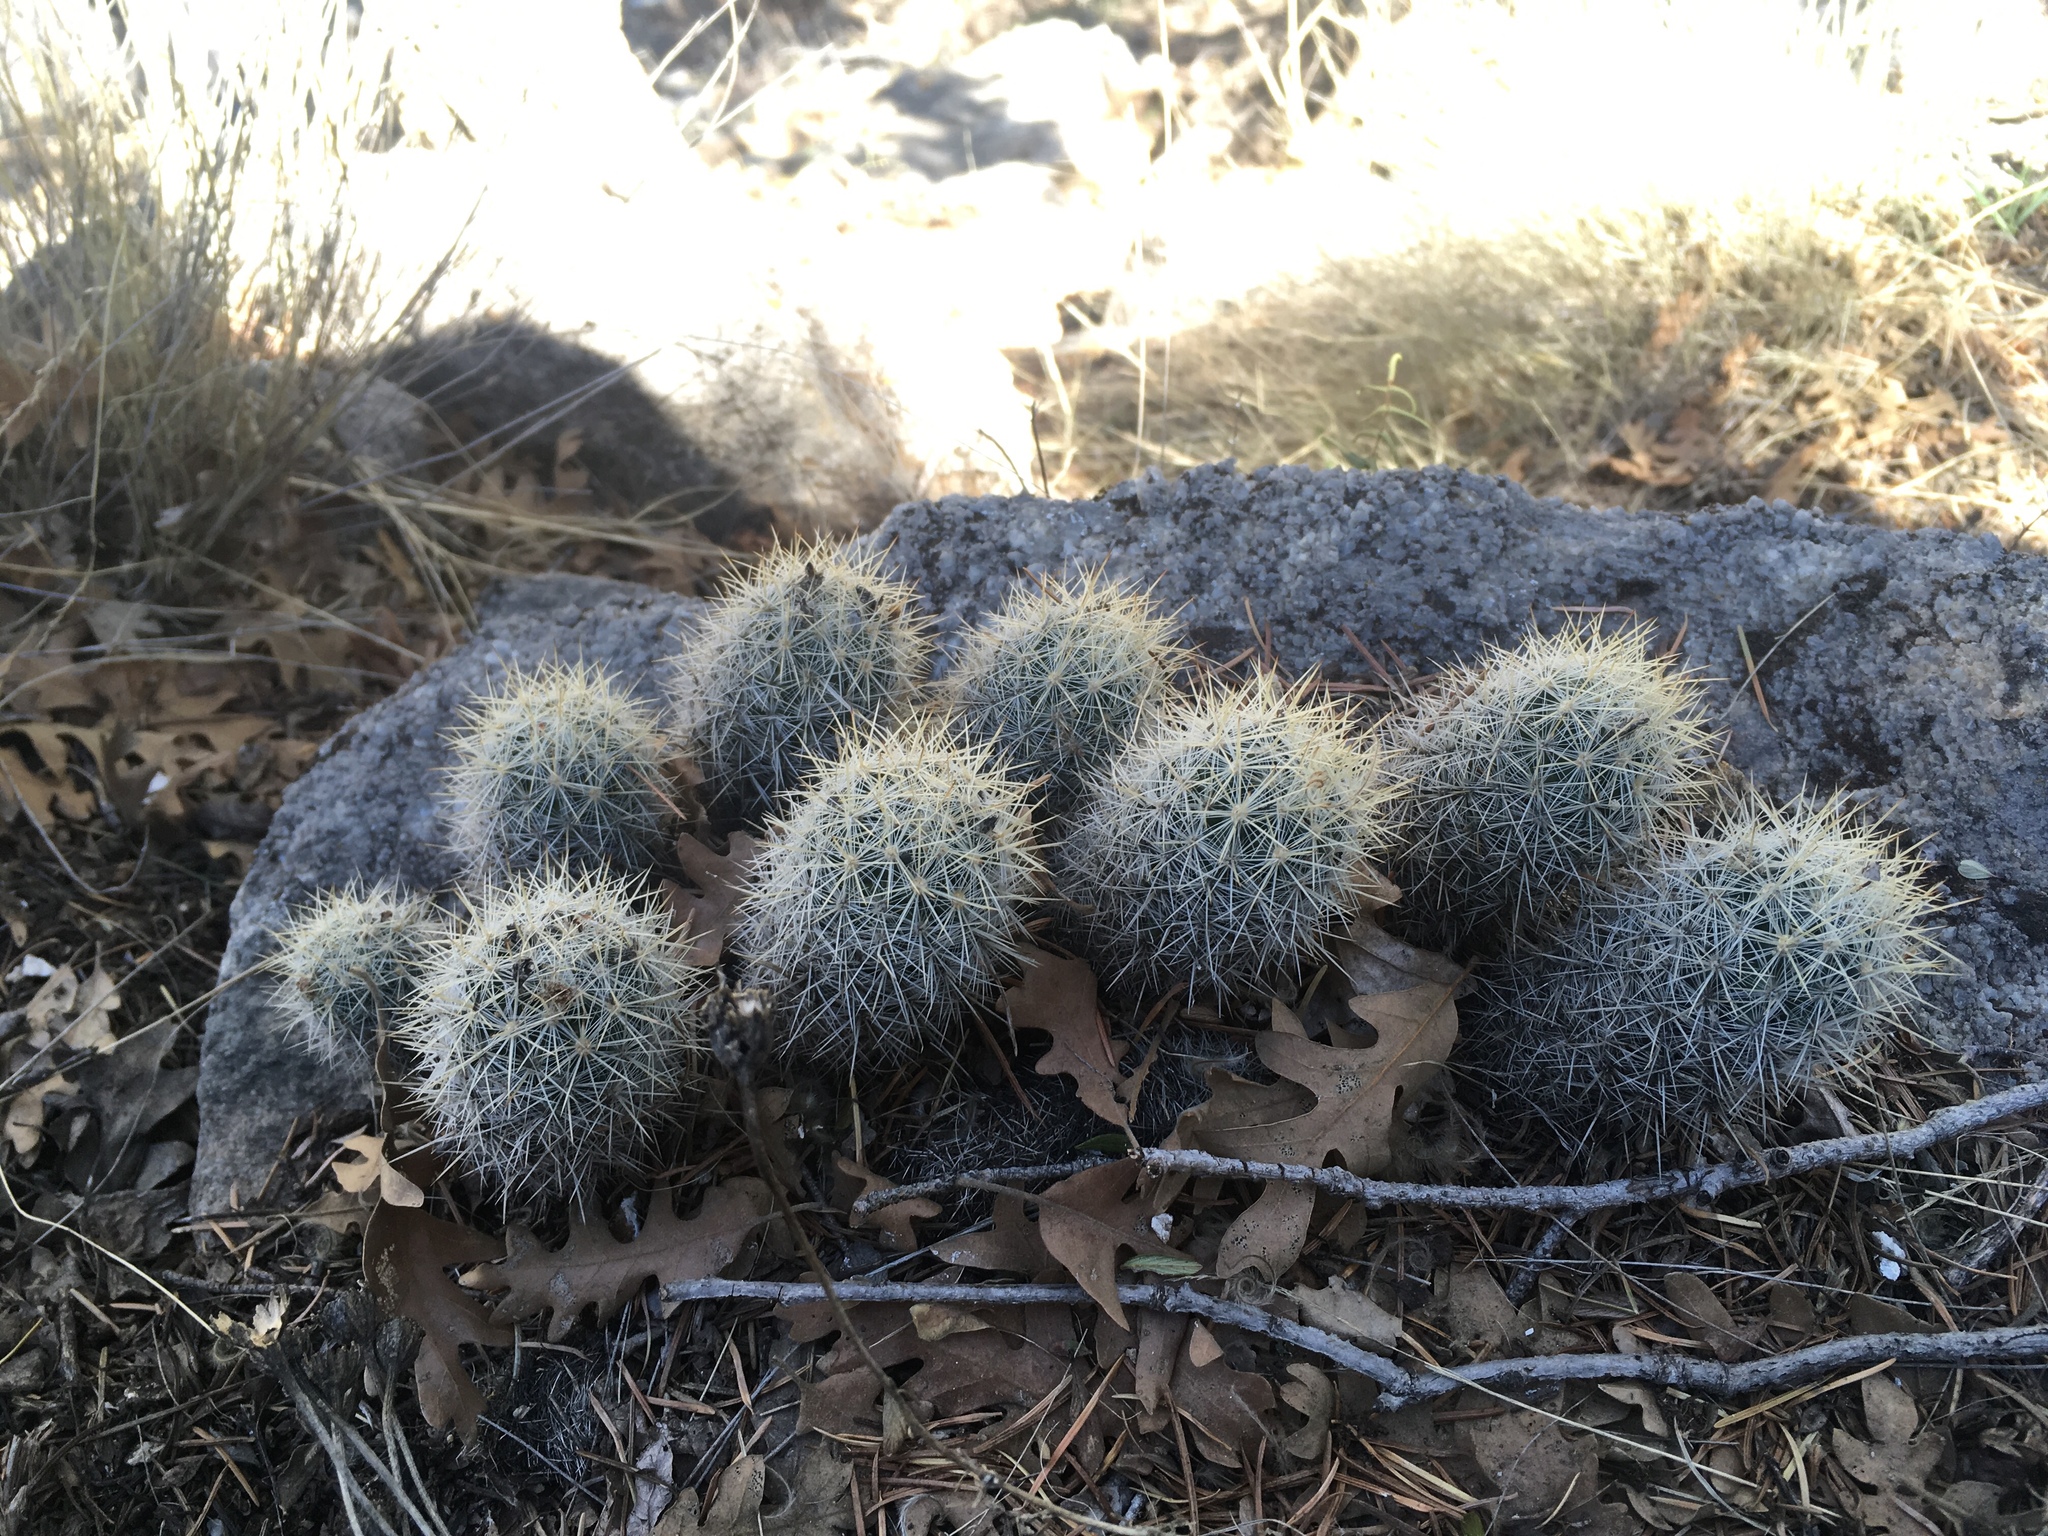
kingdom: Plantae
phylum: Tracheophyta
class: Magnoliopsida
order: Caryophyllales
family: Cactaceae
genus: Pelecyphora
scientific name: Pelecyphora sneedii
